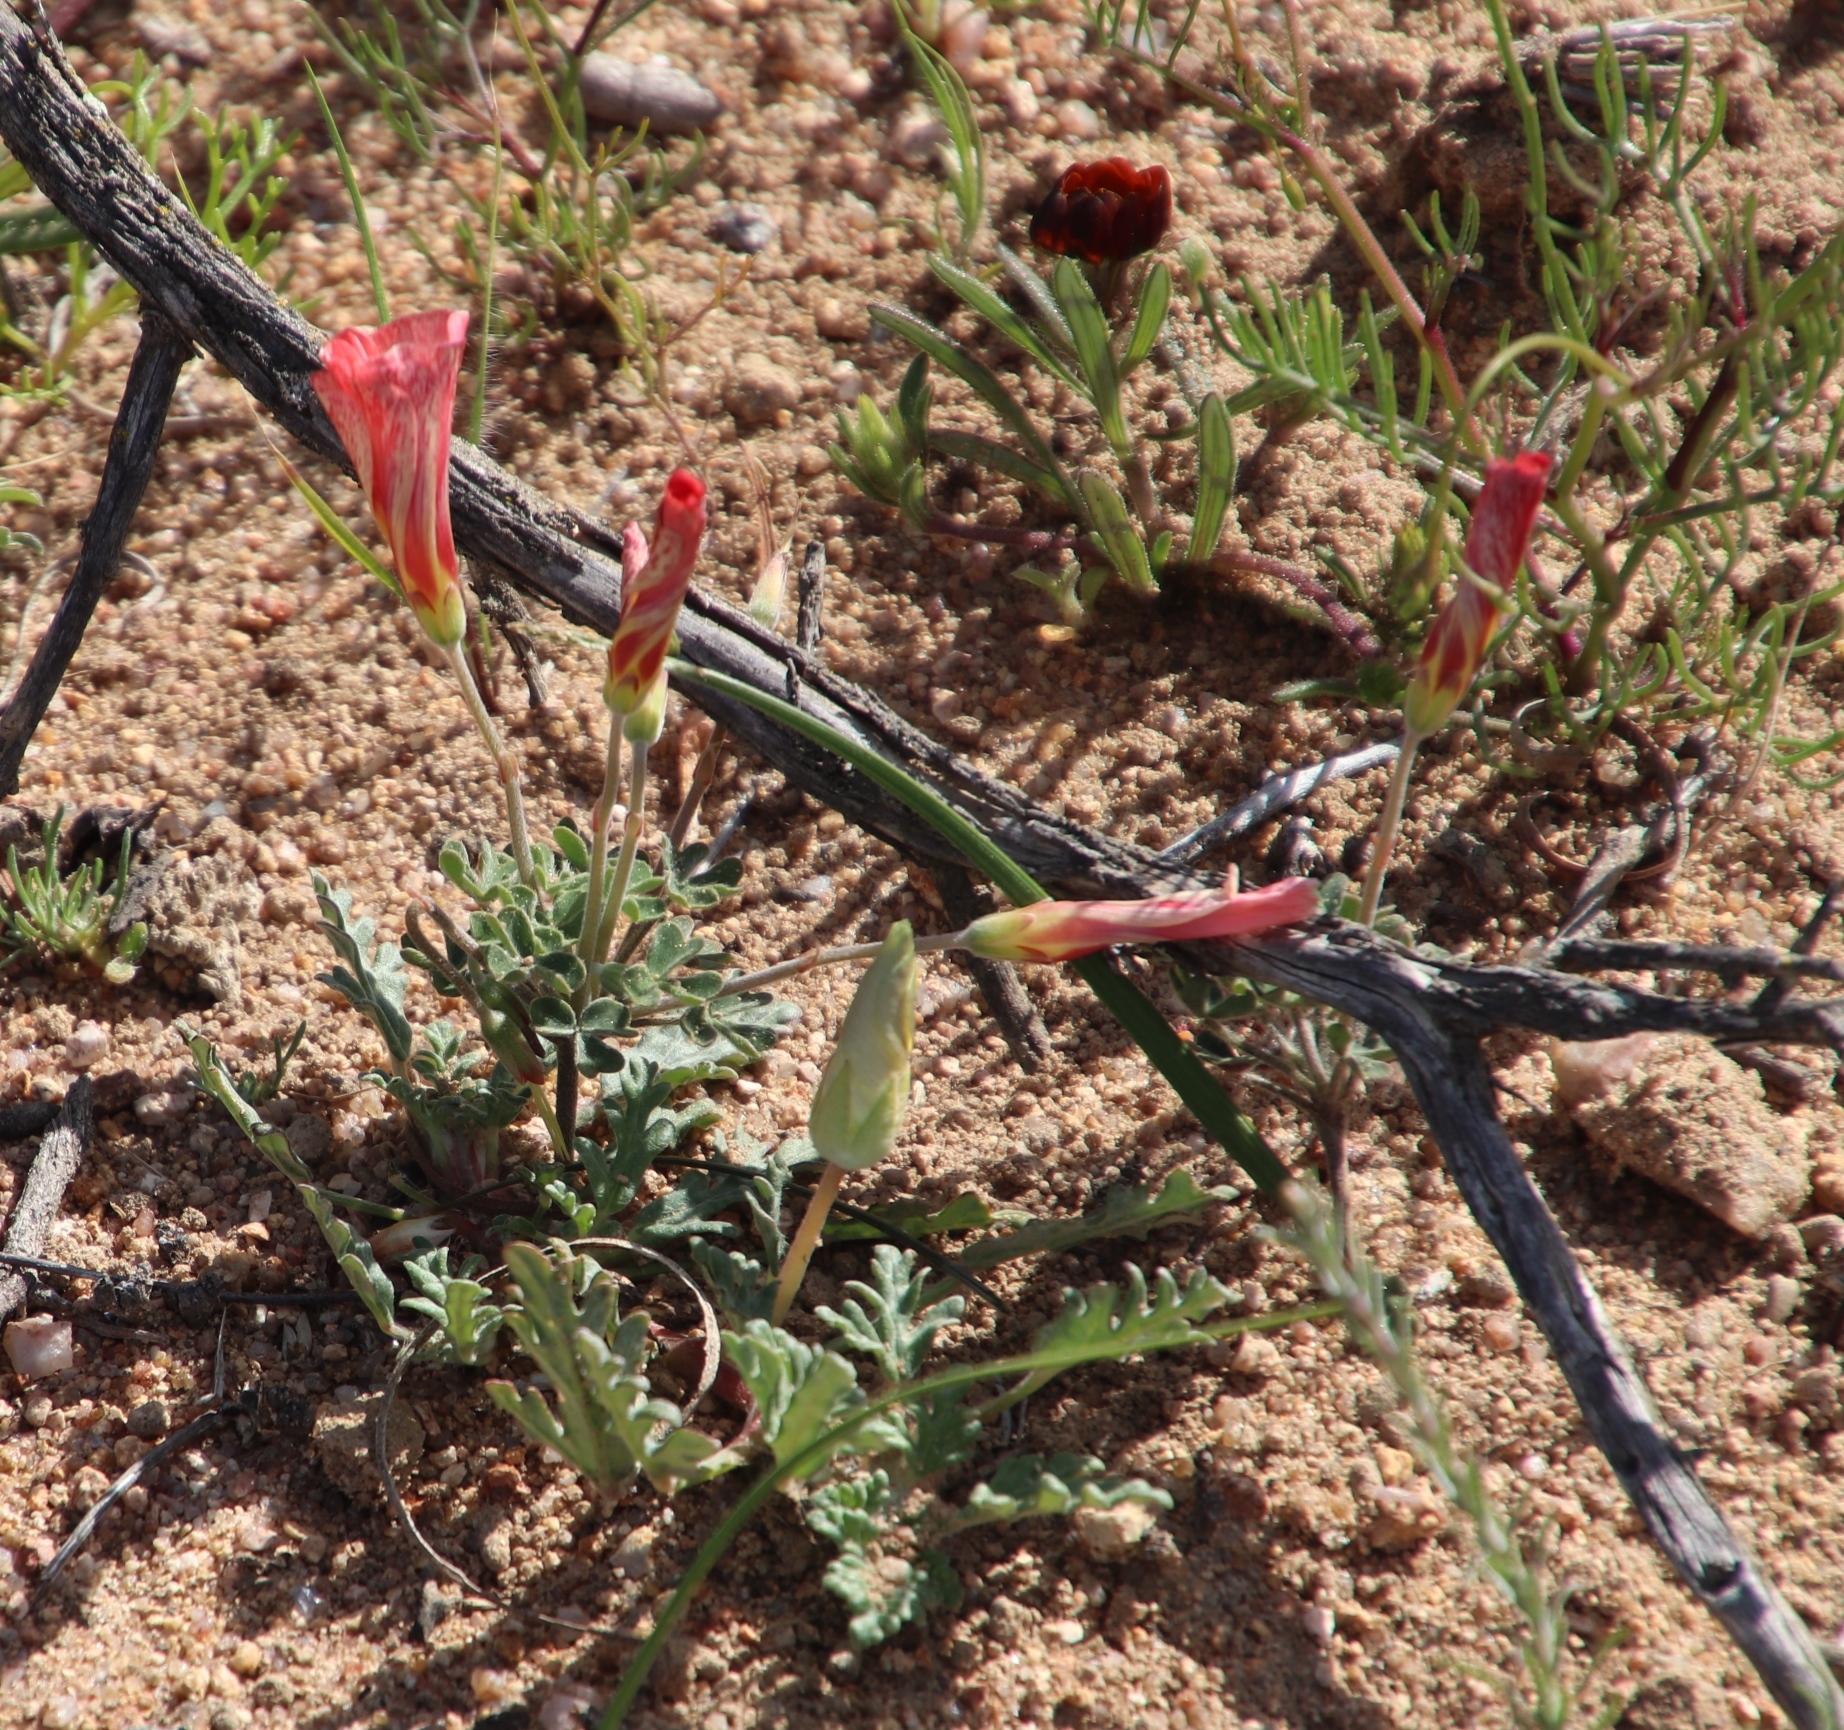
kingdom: Plantae
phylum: Tracheophyta
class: Magnoliopsida
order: Oxalidales
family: Oxalidaceae
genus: Oxalis
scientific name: Oxalis obtusa
